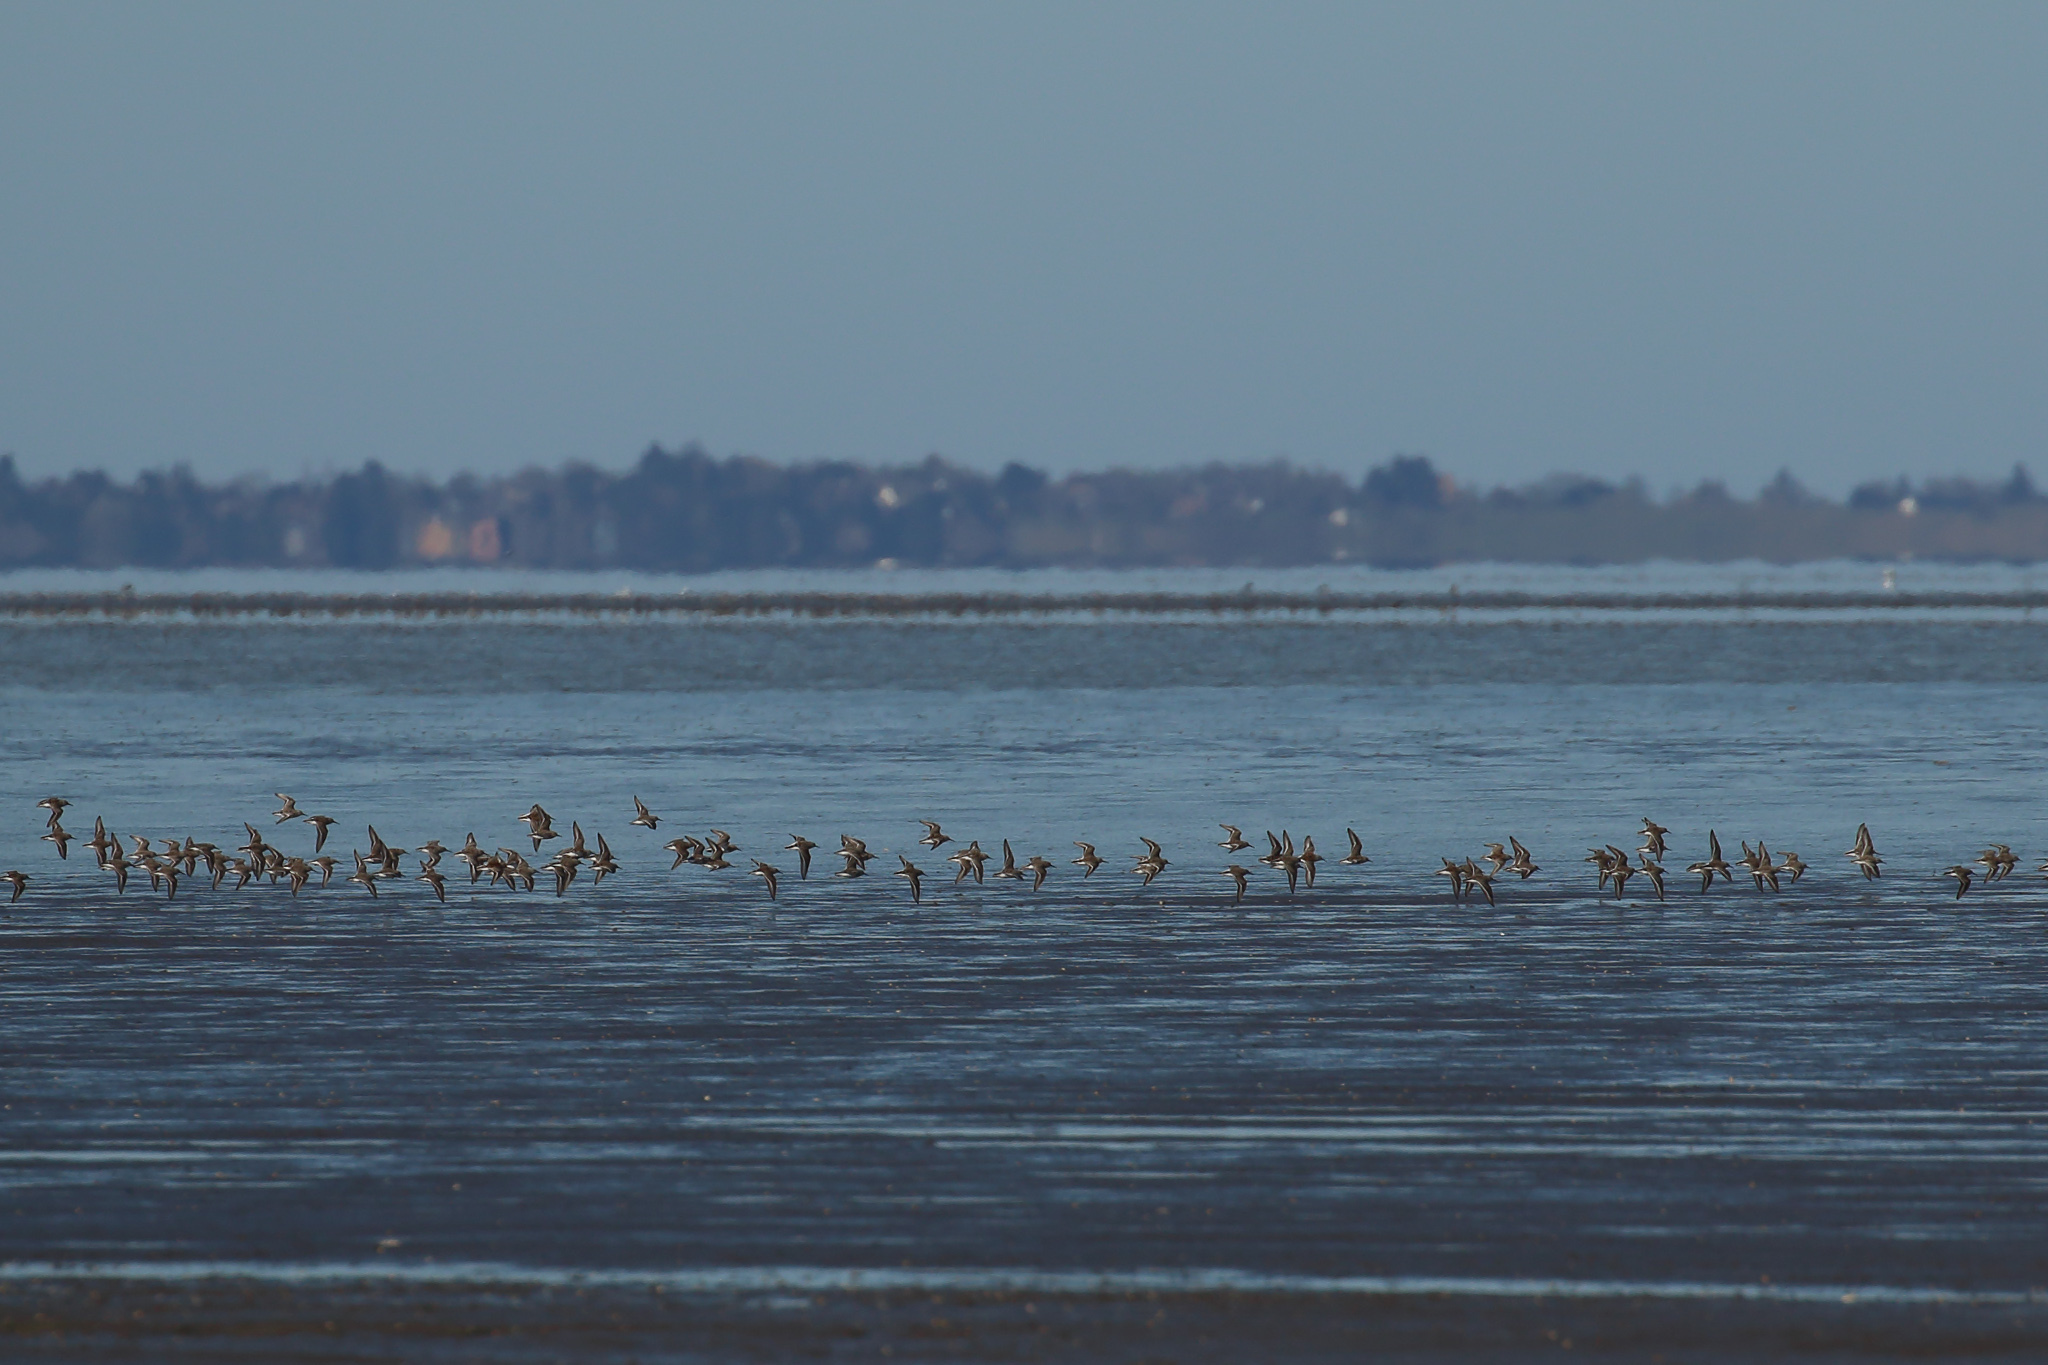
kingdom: Animalia
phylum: Chordata
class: Aves
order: Charadriiformes
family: Scolopacidae
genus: Calidris
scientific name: Calidris alpina
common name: Dunlin
